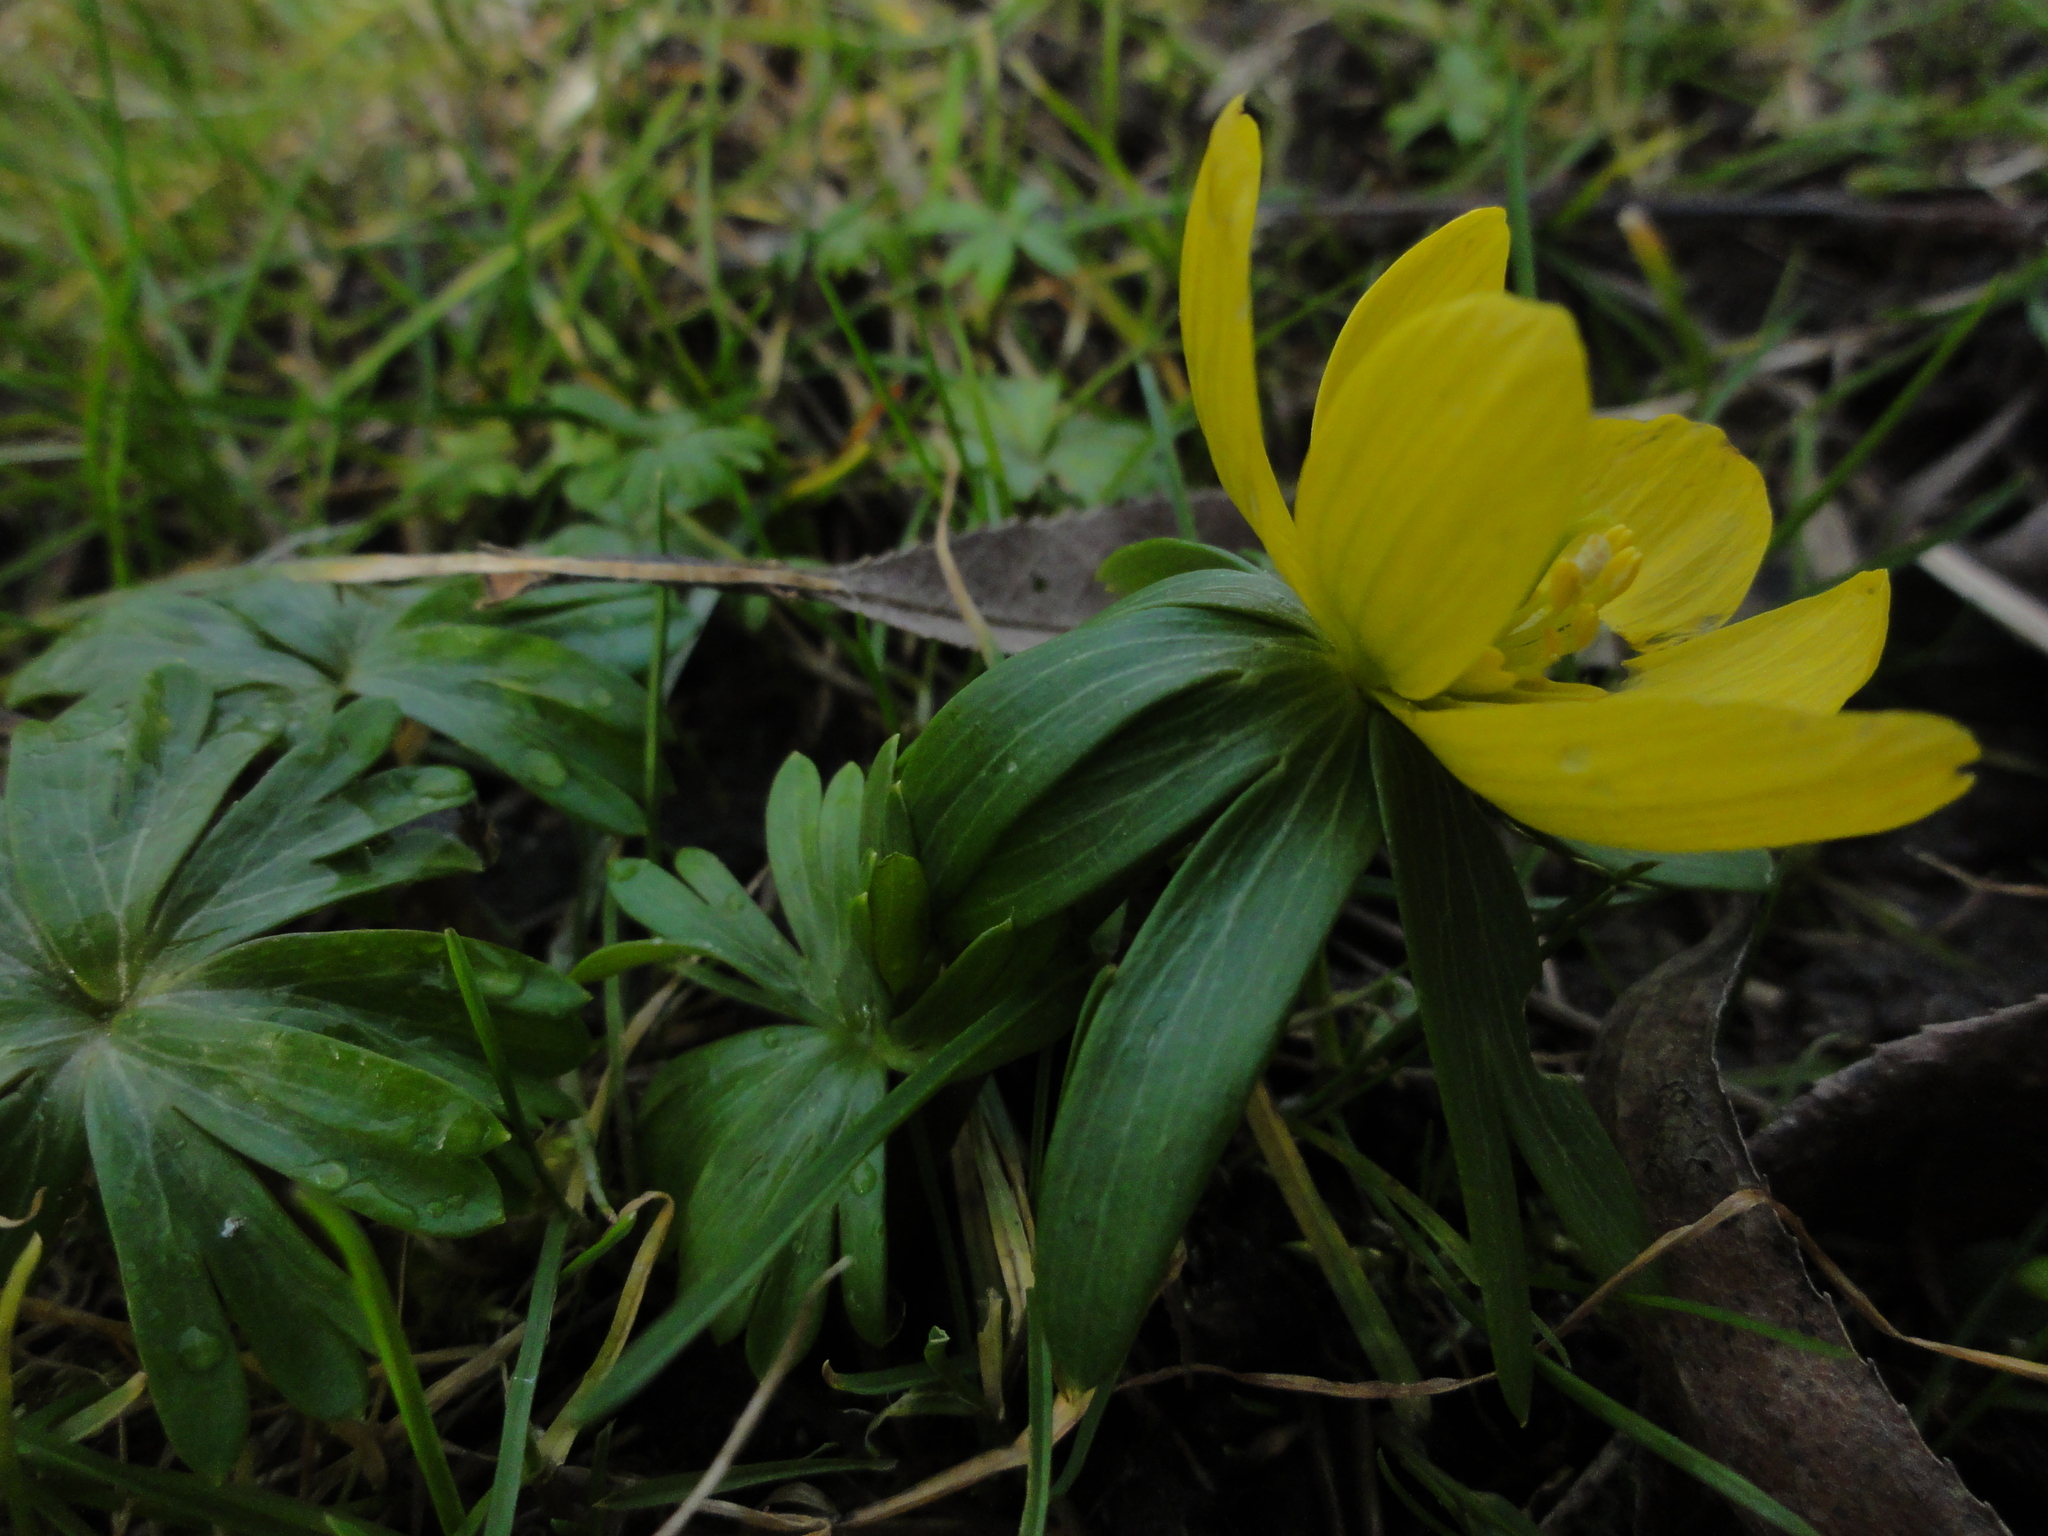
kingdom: Plantae
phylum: Tracheophyta
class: Magnoliopsida
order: Ranunculales
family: Ranunculaceae
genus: Eranthis
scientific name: Eranthis hyemalis
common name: Winter aconite
